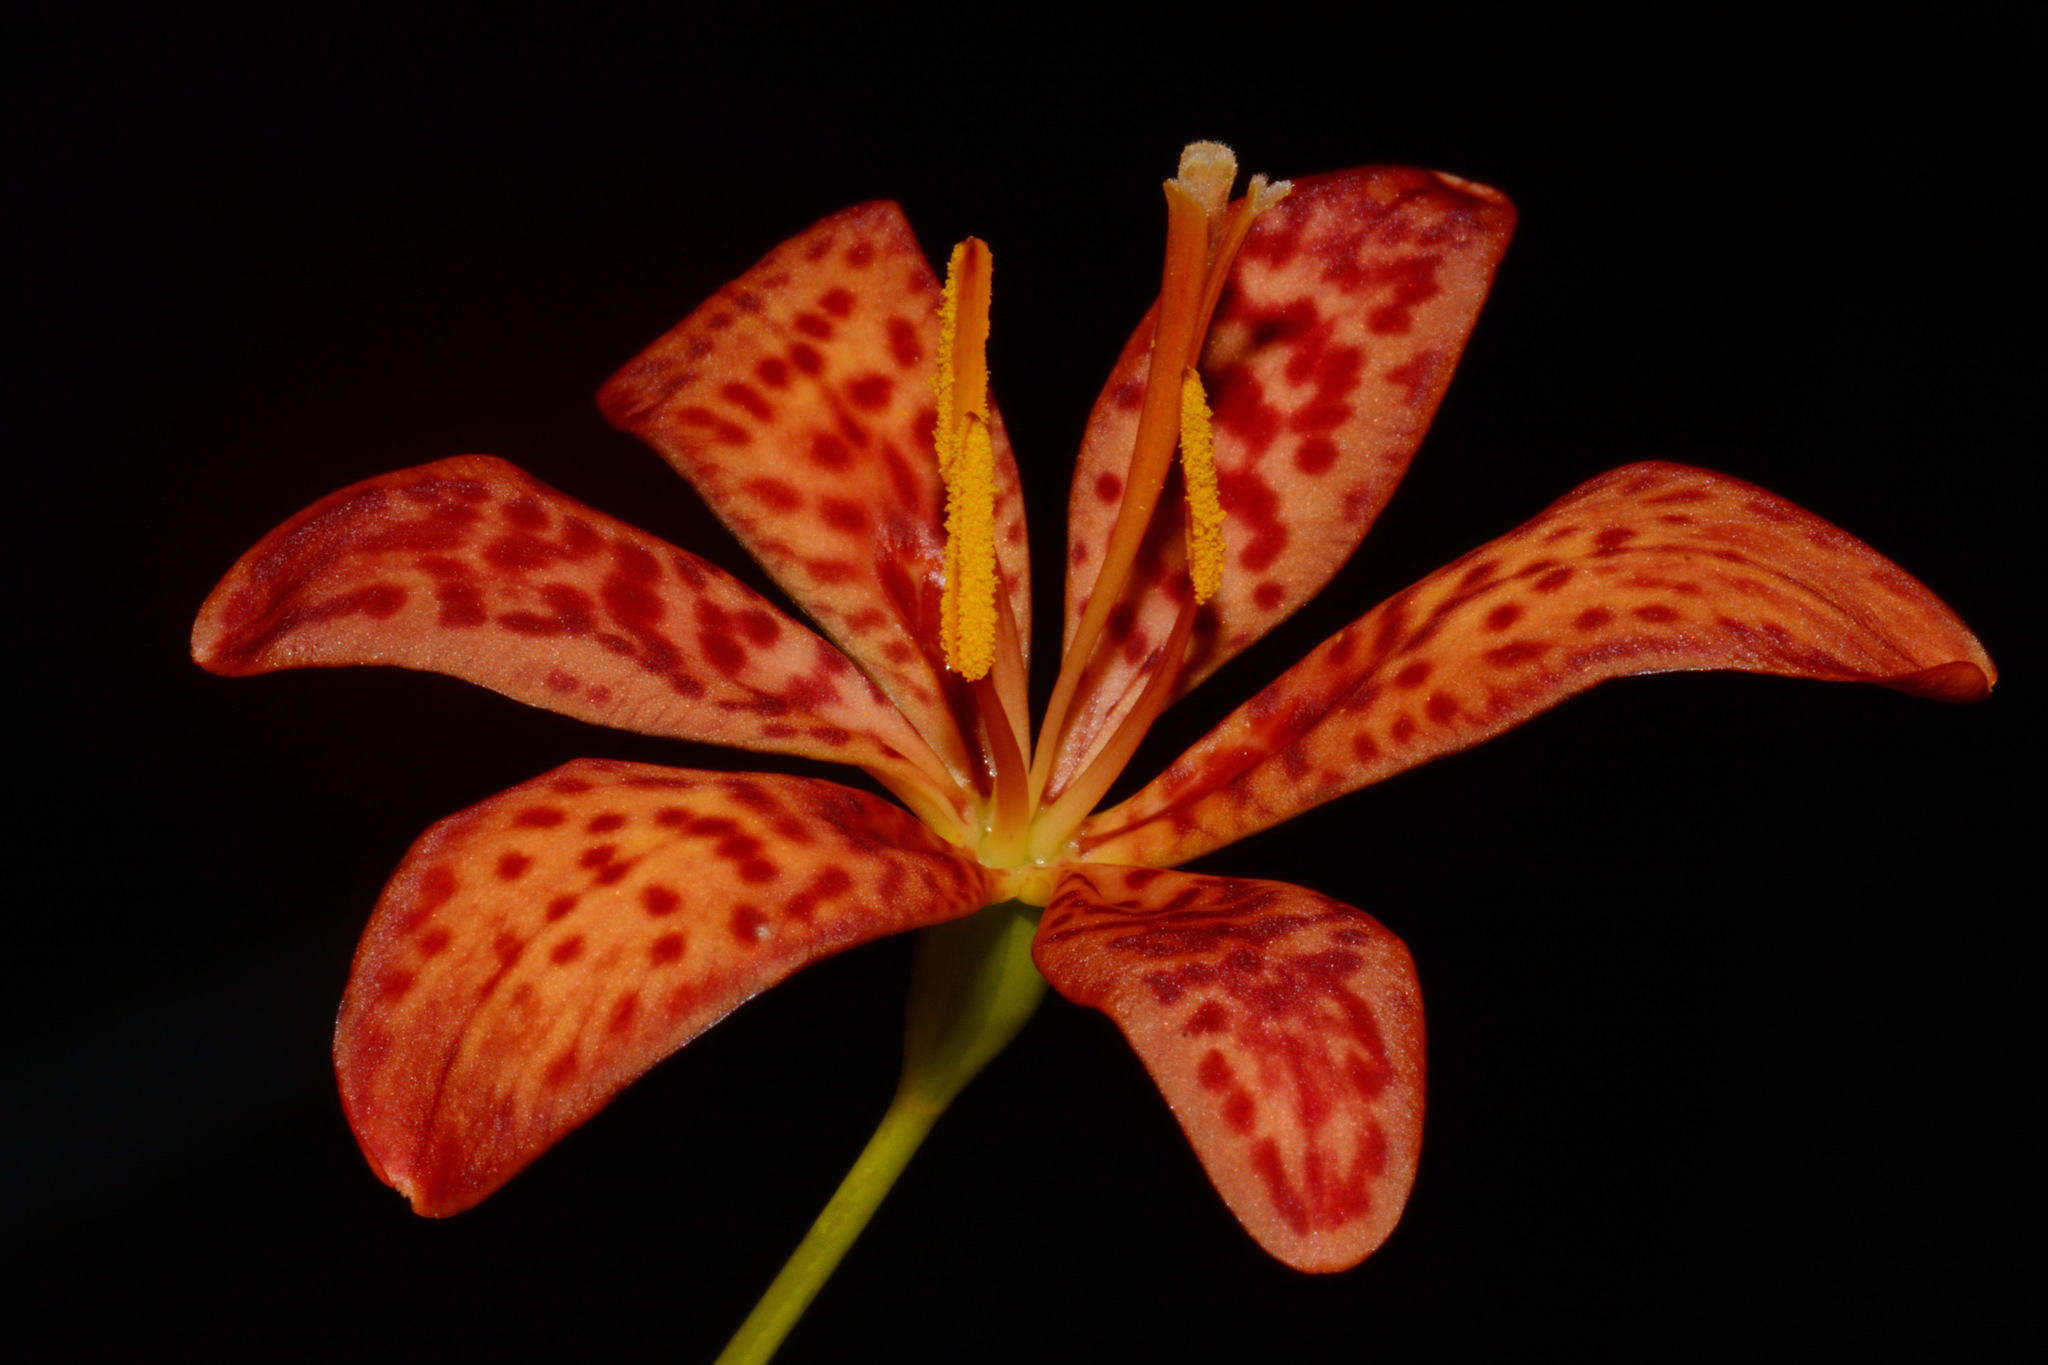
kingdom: Plantae
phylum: Tracheophyta
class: Liliopsida
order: Asparagales
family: Iridaceae
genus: Iris
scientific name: Iris domestica
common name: Belamcanda
